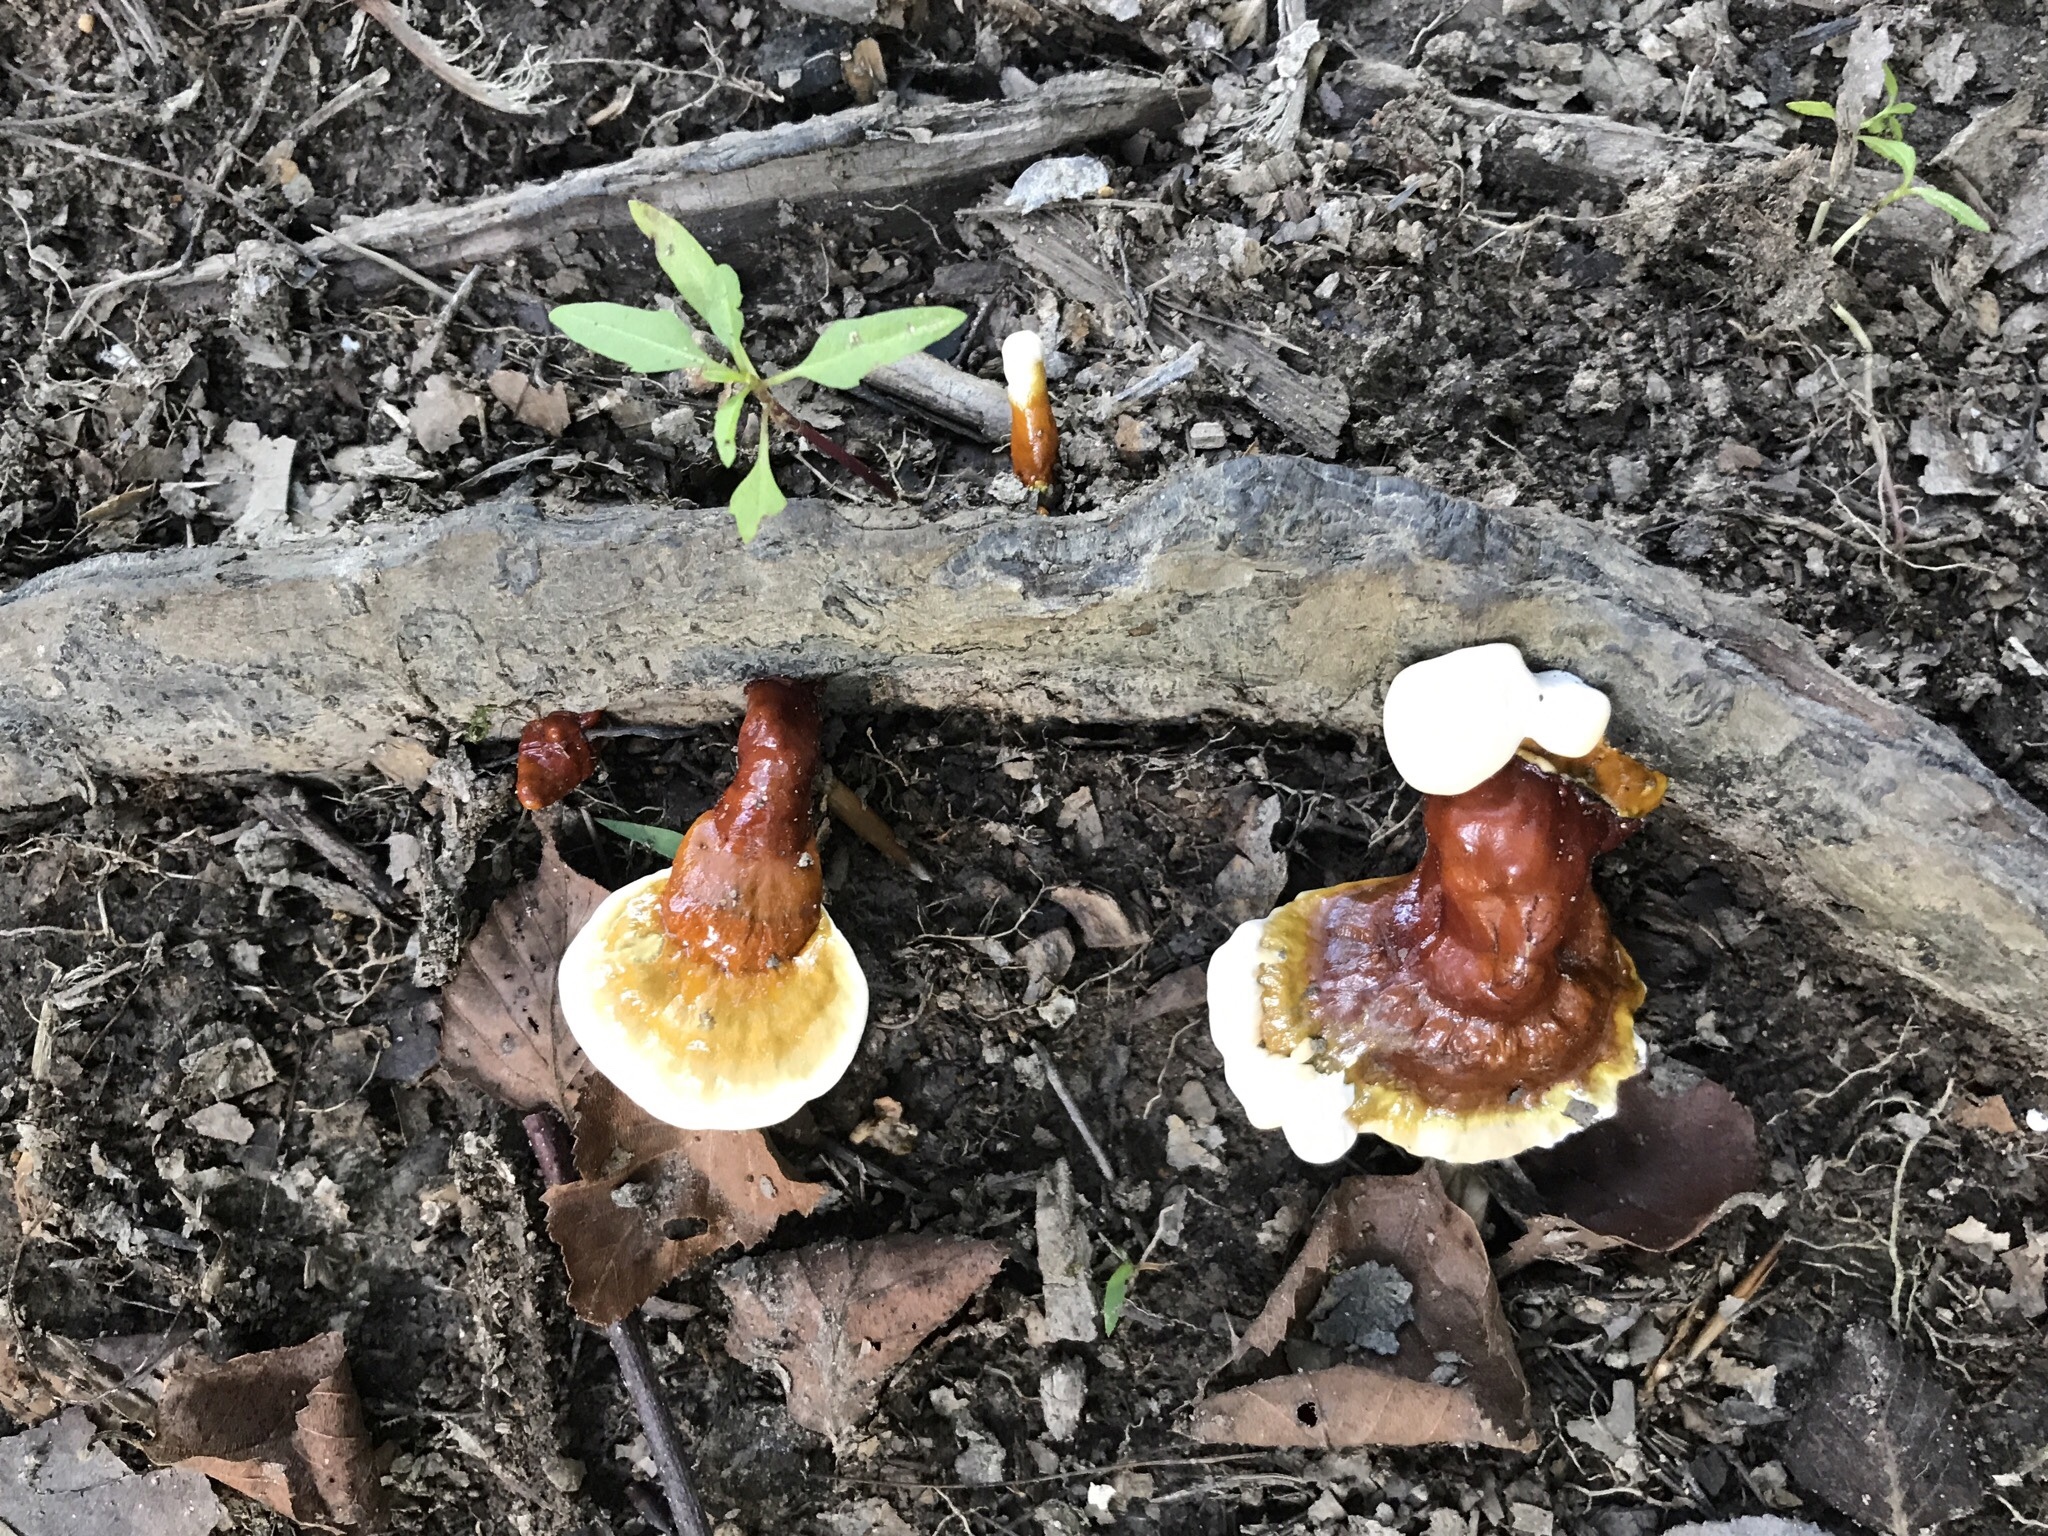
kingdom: Fungi
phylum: Basidiomycota
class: Agaricomycetes
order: Polyporales
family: Polyporaceae
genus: Ganoderma
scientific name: Ganoderma curtisii
